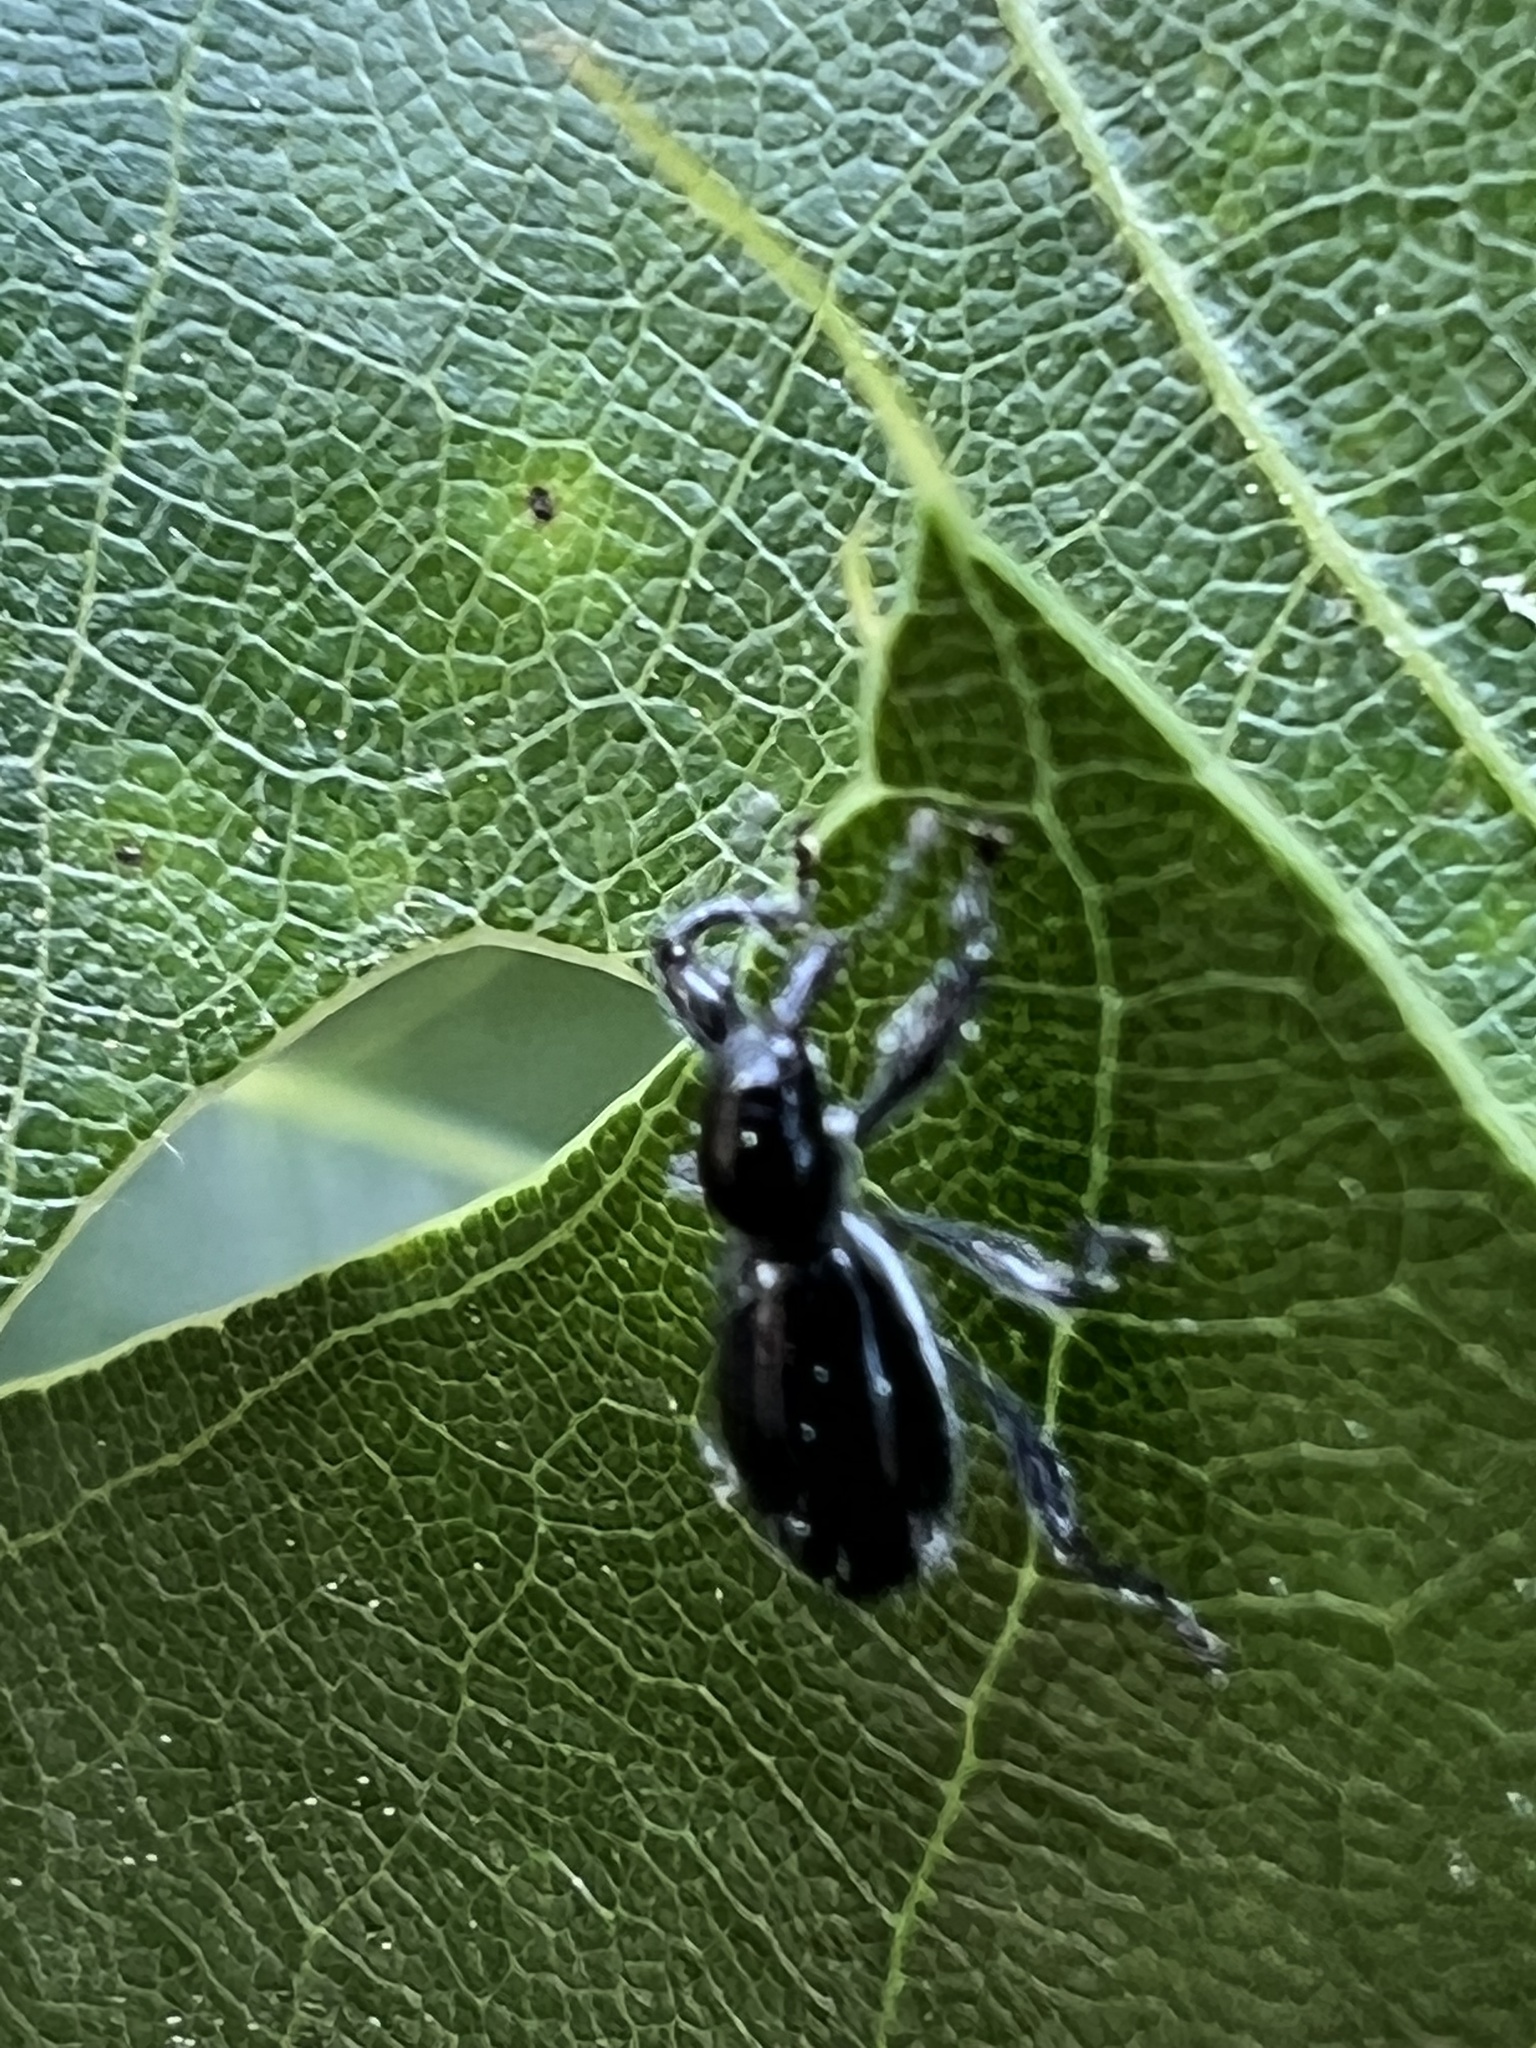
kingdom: Animalia
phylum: Arthropoda
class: Insecta
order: Coleoptera
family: Curculionidae
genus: Myrmex
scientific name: Myrmex myrmex
